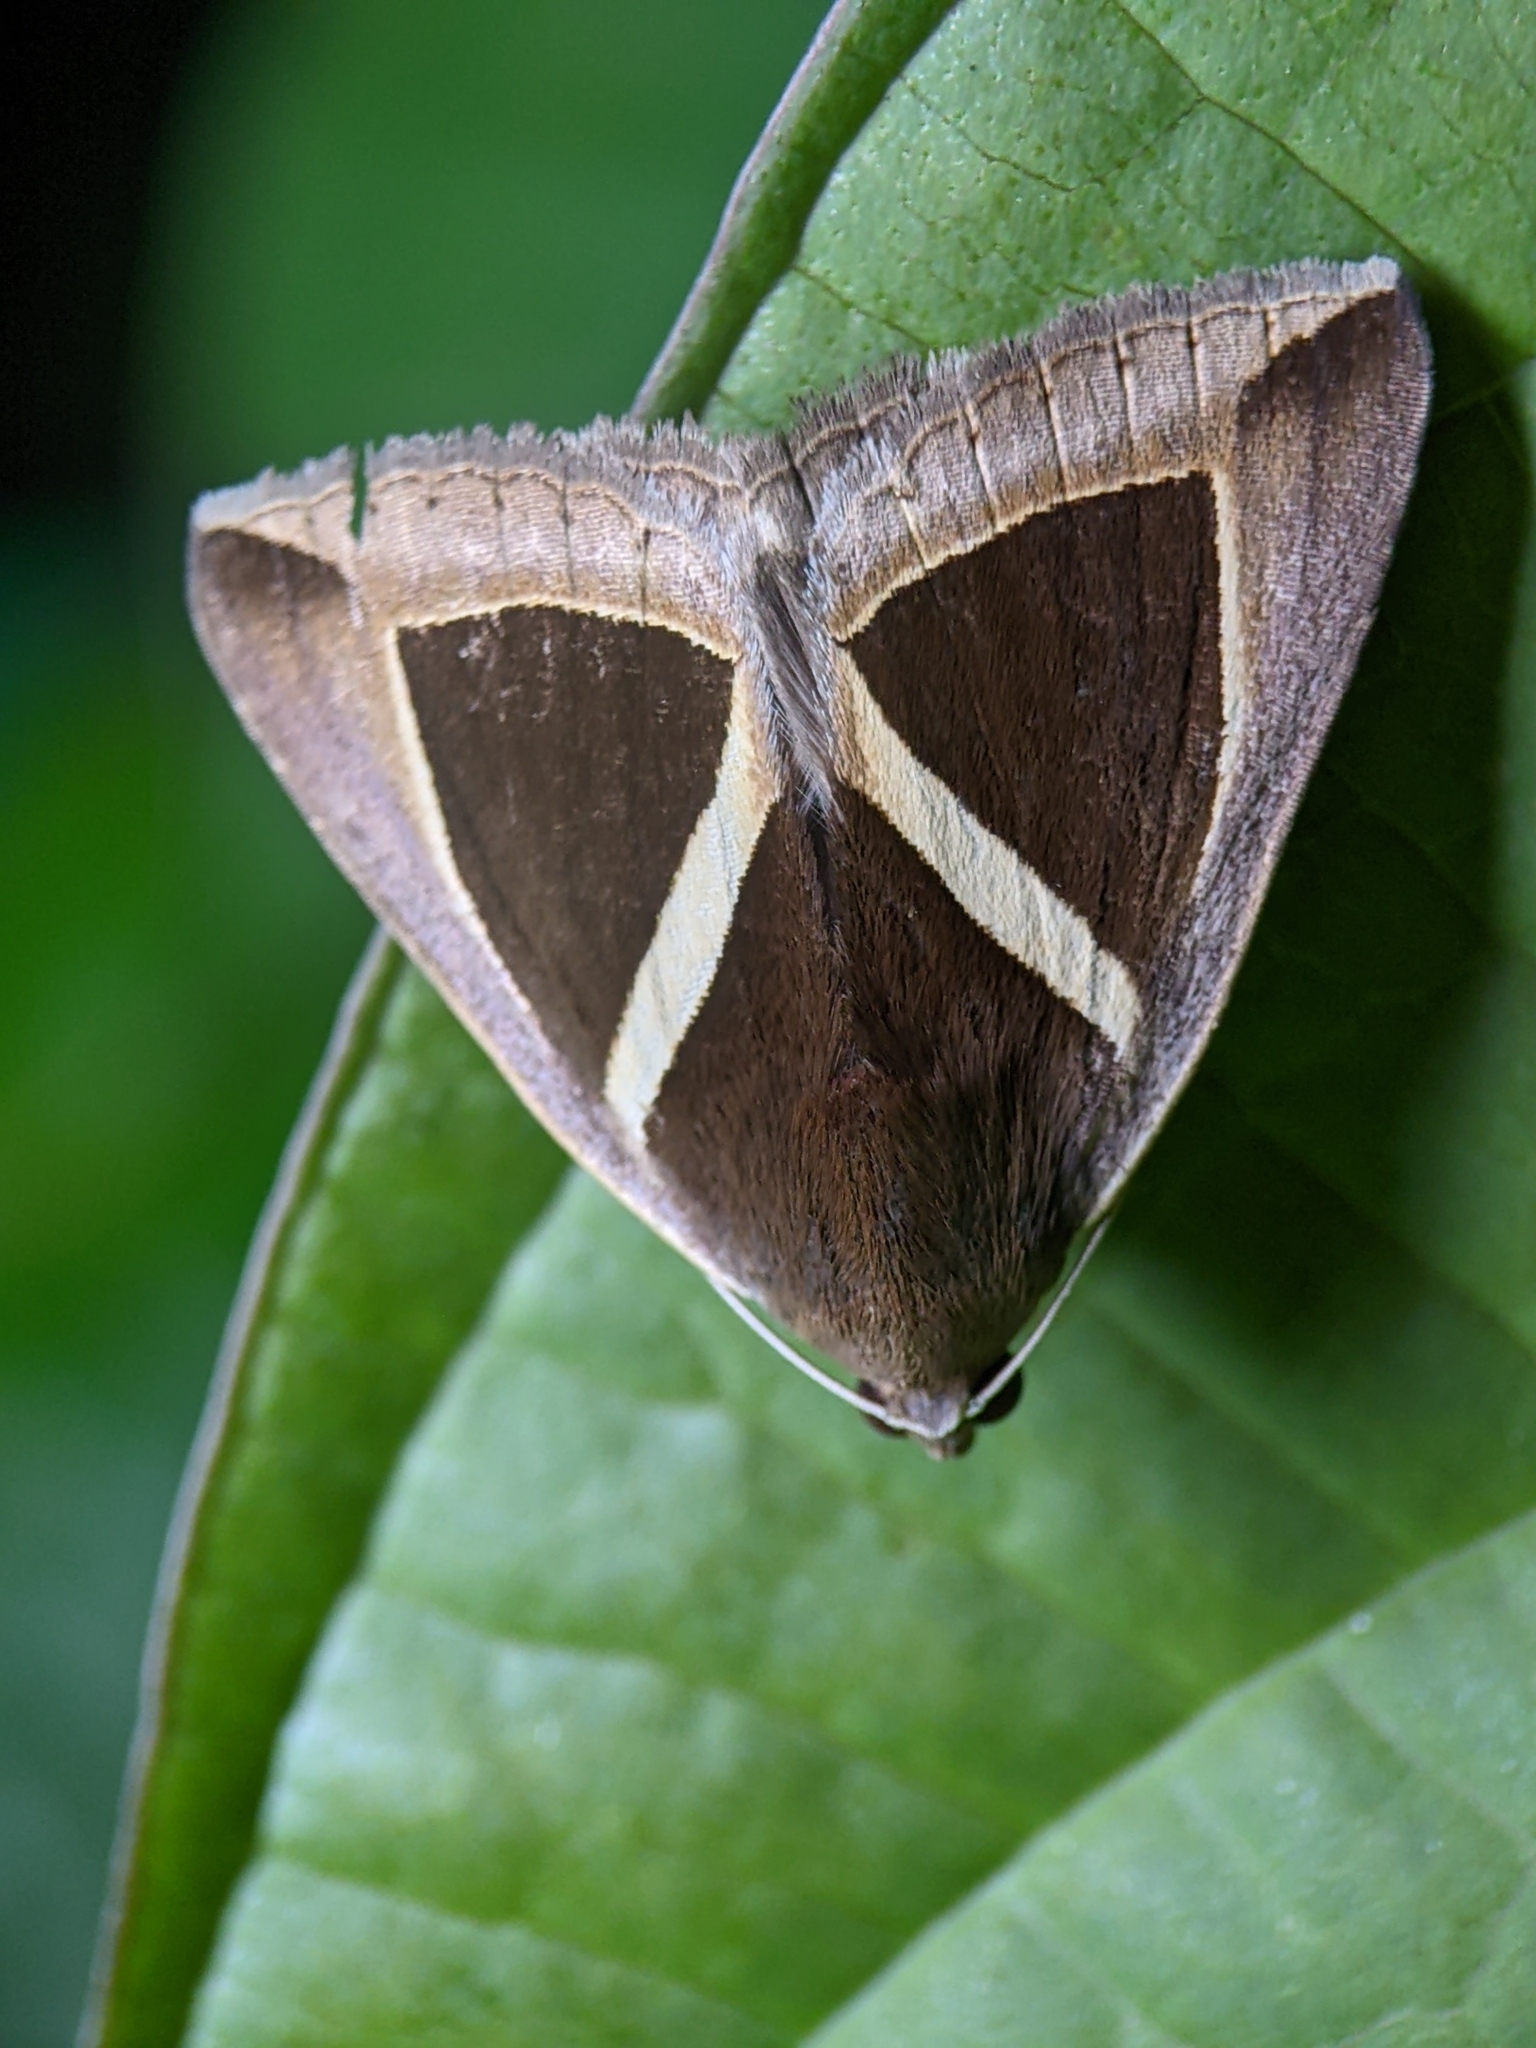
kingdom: Animalia
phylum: Arthropoda
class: Insecta
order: Lepidoptera
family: Erebidae
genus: Chalciope
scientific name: Chalciope mygdon
